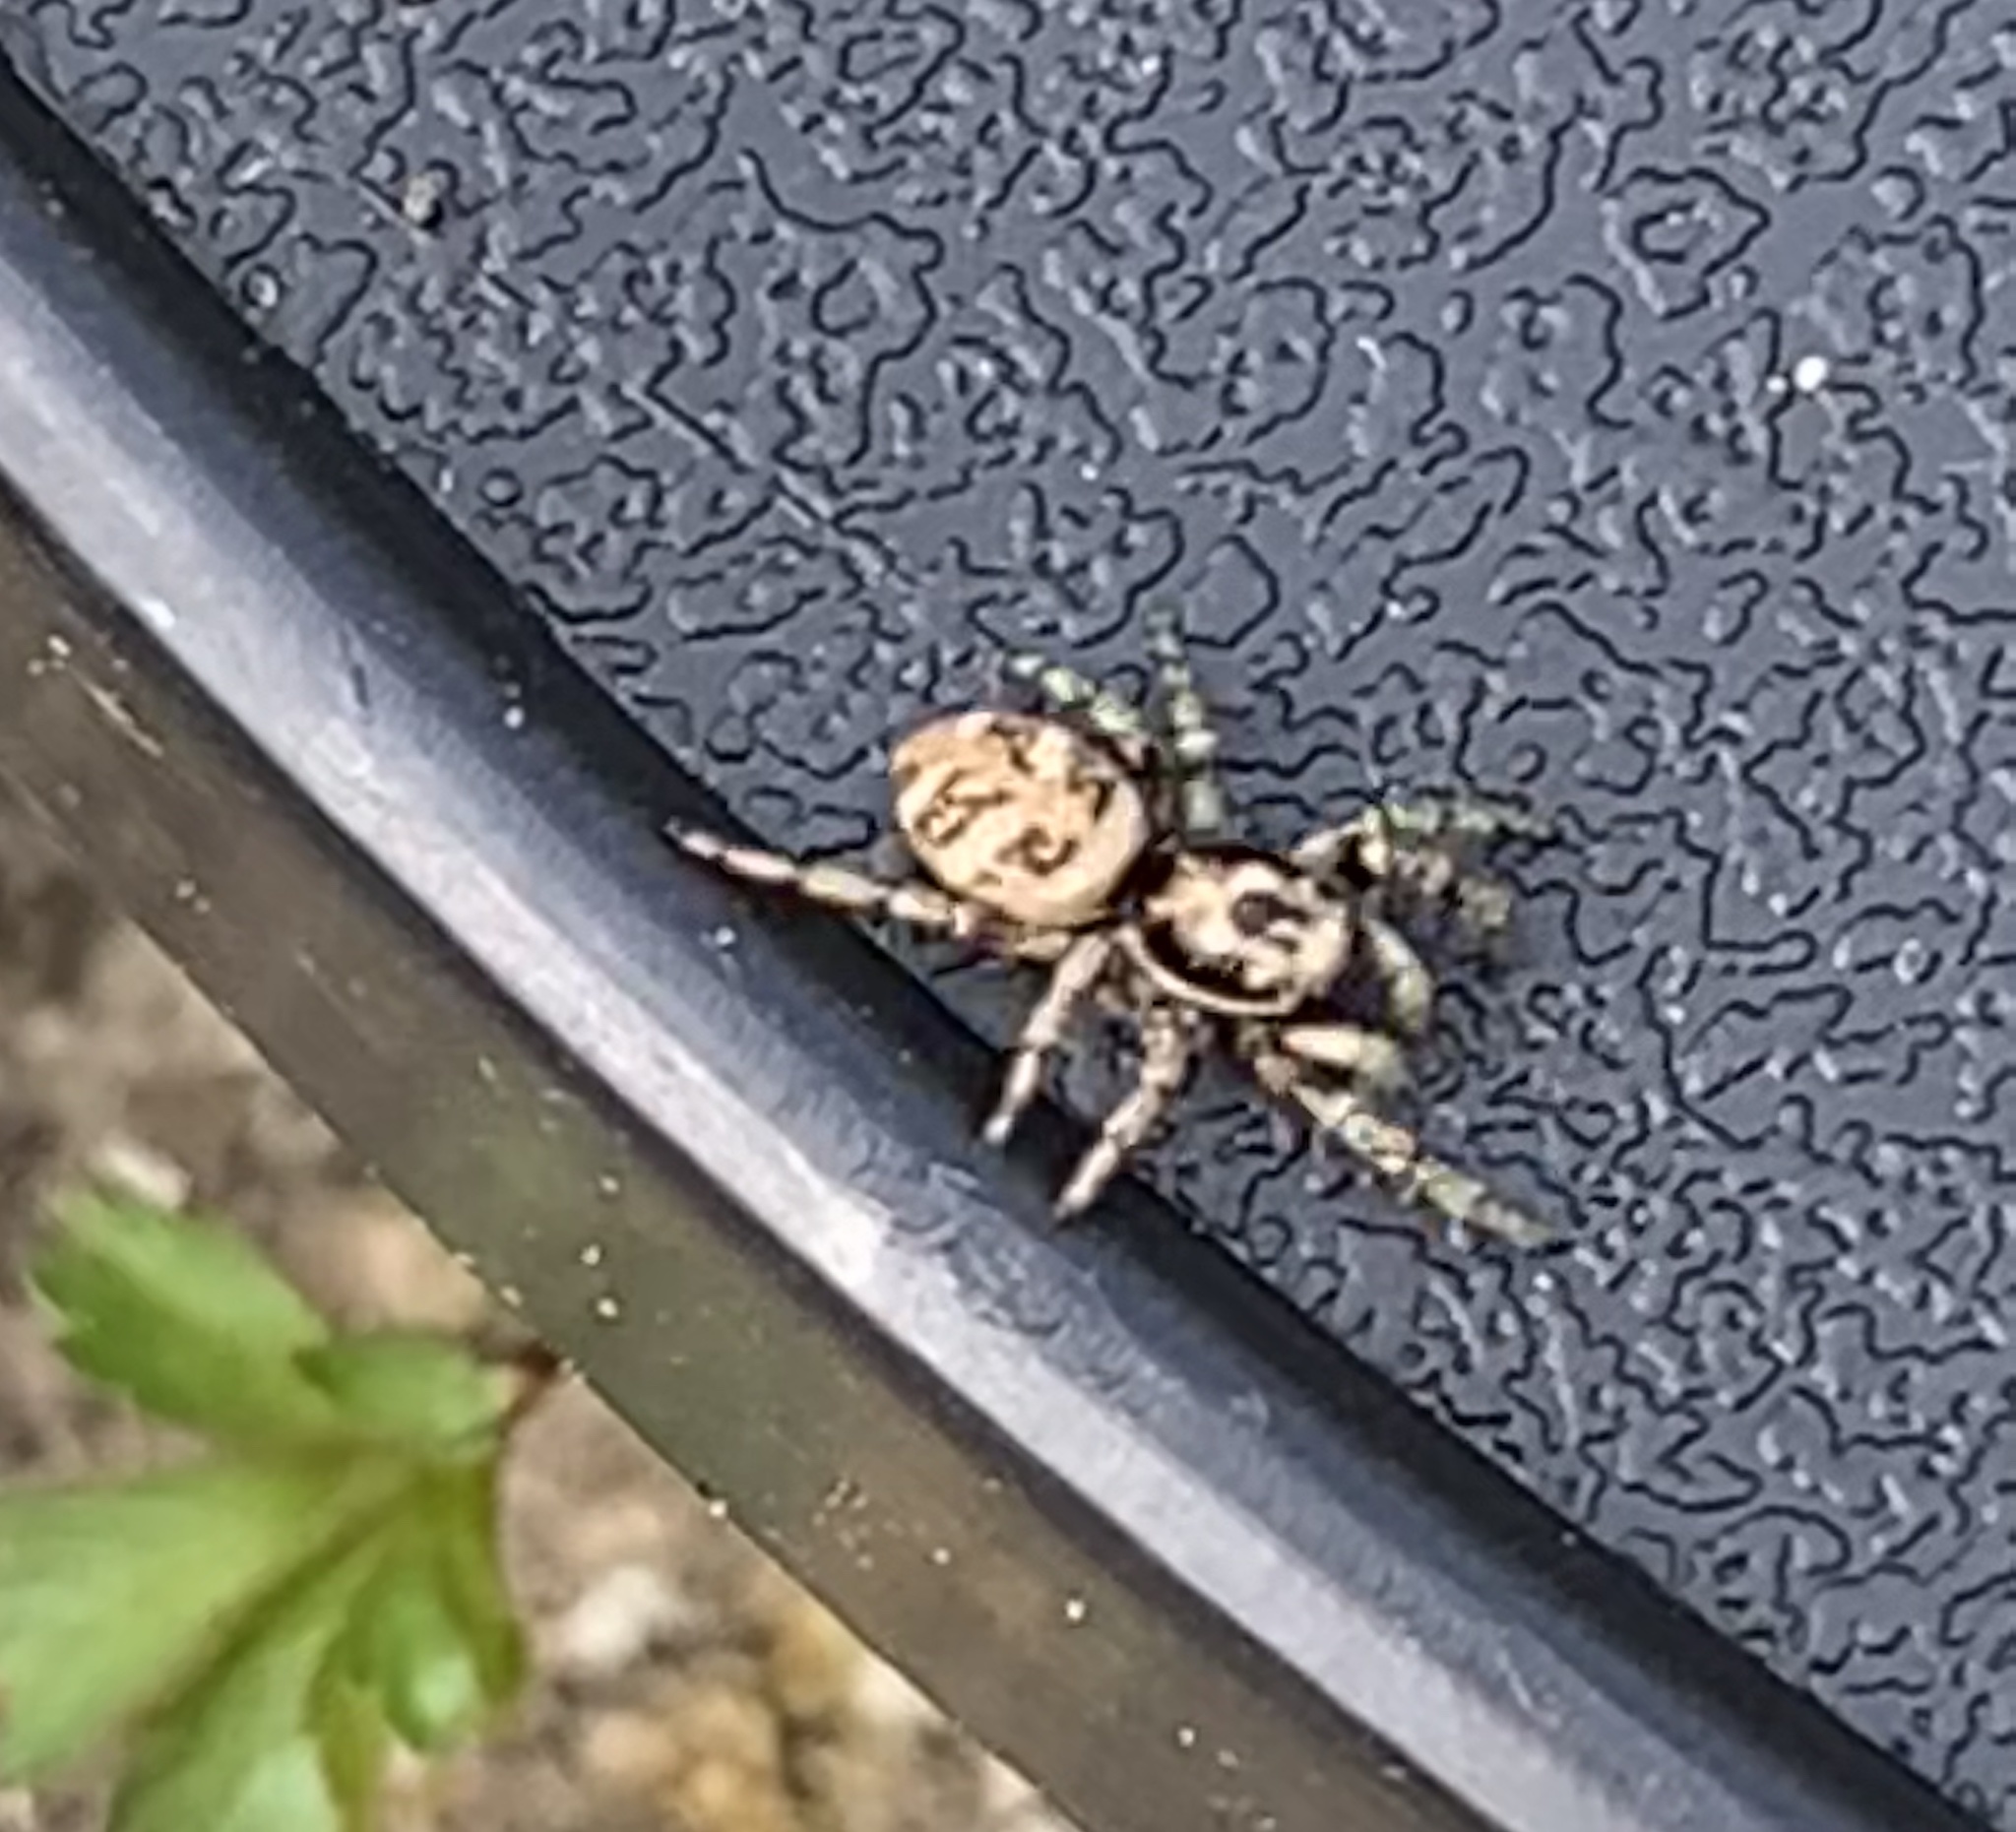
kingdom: Animalia
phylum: Arthropoda
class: Arachnida
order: Araneae
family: Salticidae
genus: Salticus
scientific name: Salticus scenicus
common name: Zebra jumper
